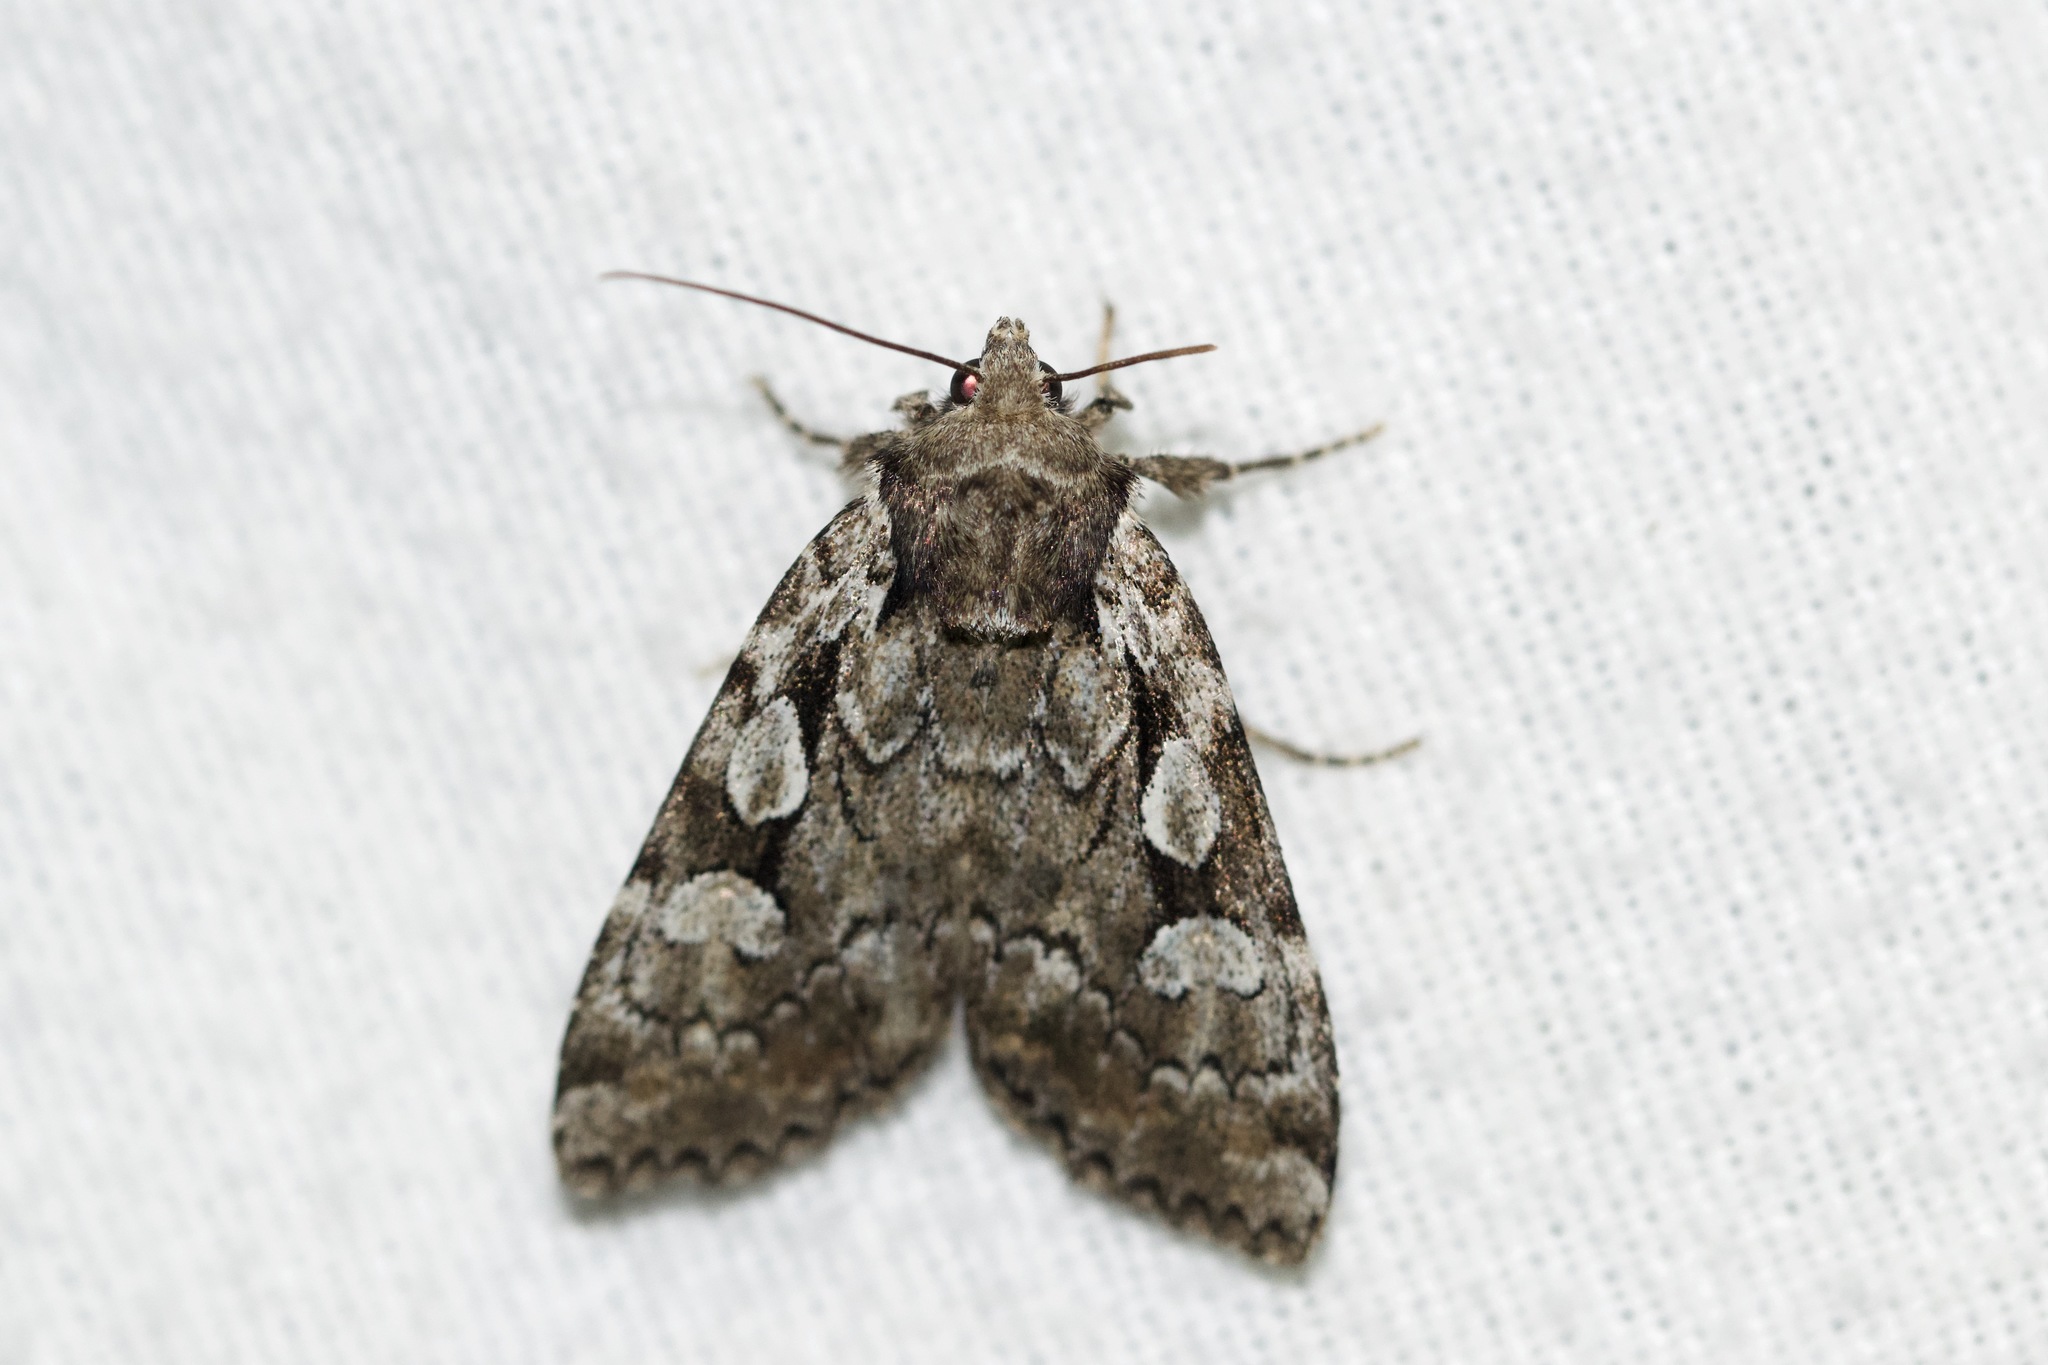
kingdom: Animalia
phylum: Arthropoda
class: Insecta
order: Lepidoptera
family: Noctuidae
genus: Aplectoides
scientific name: Aplectoides condita
